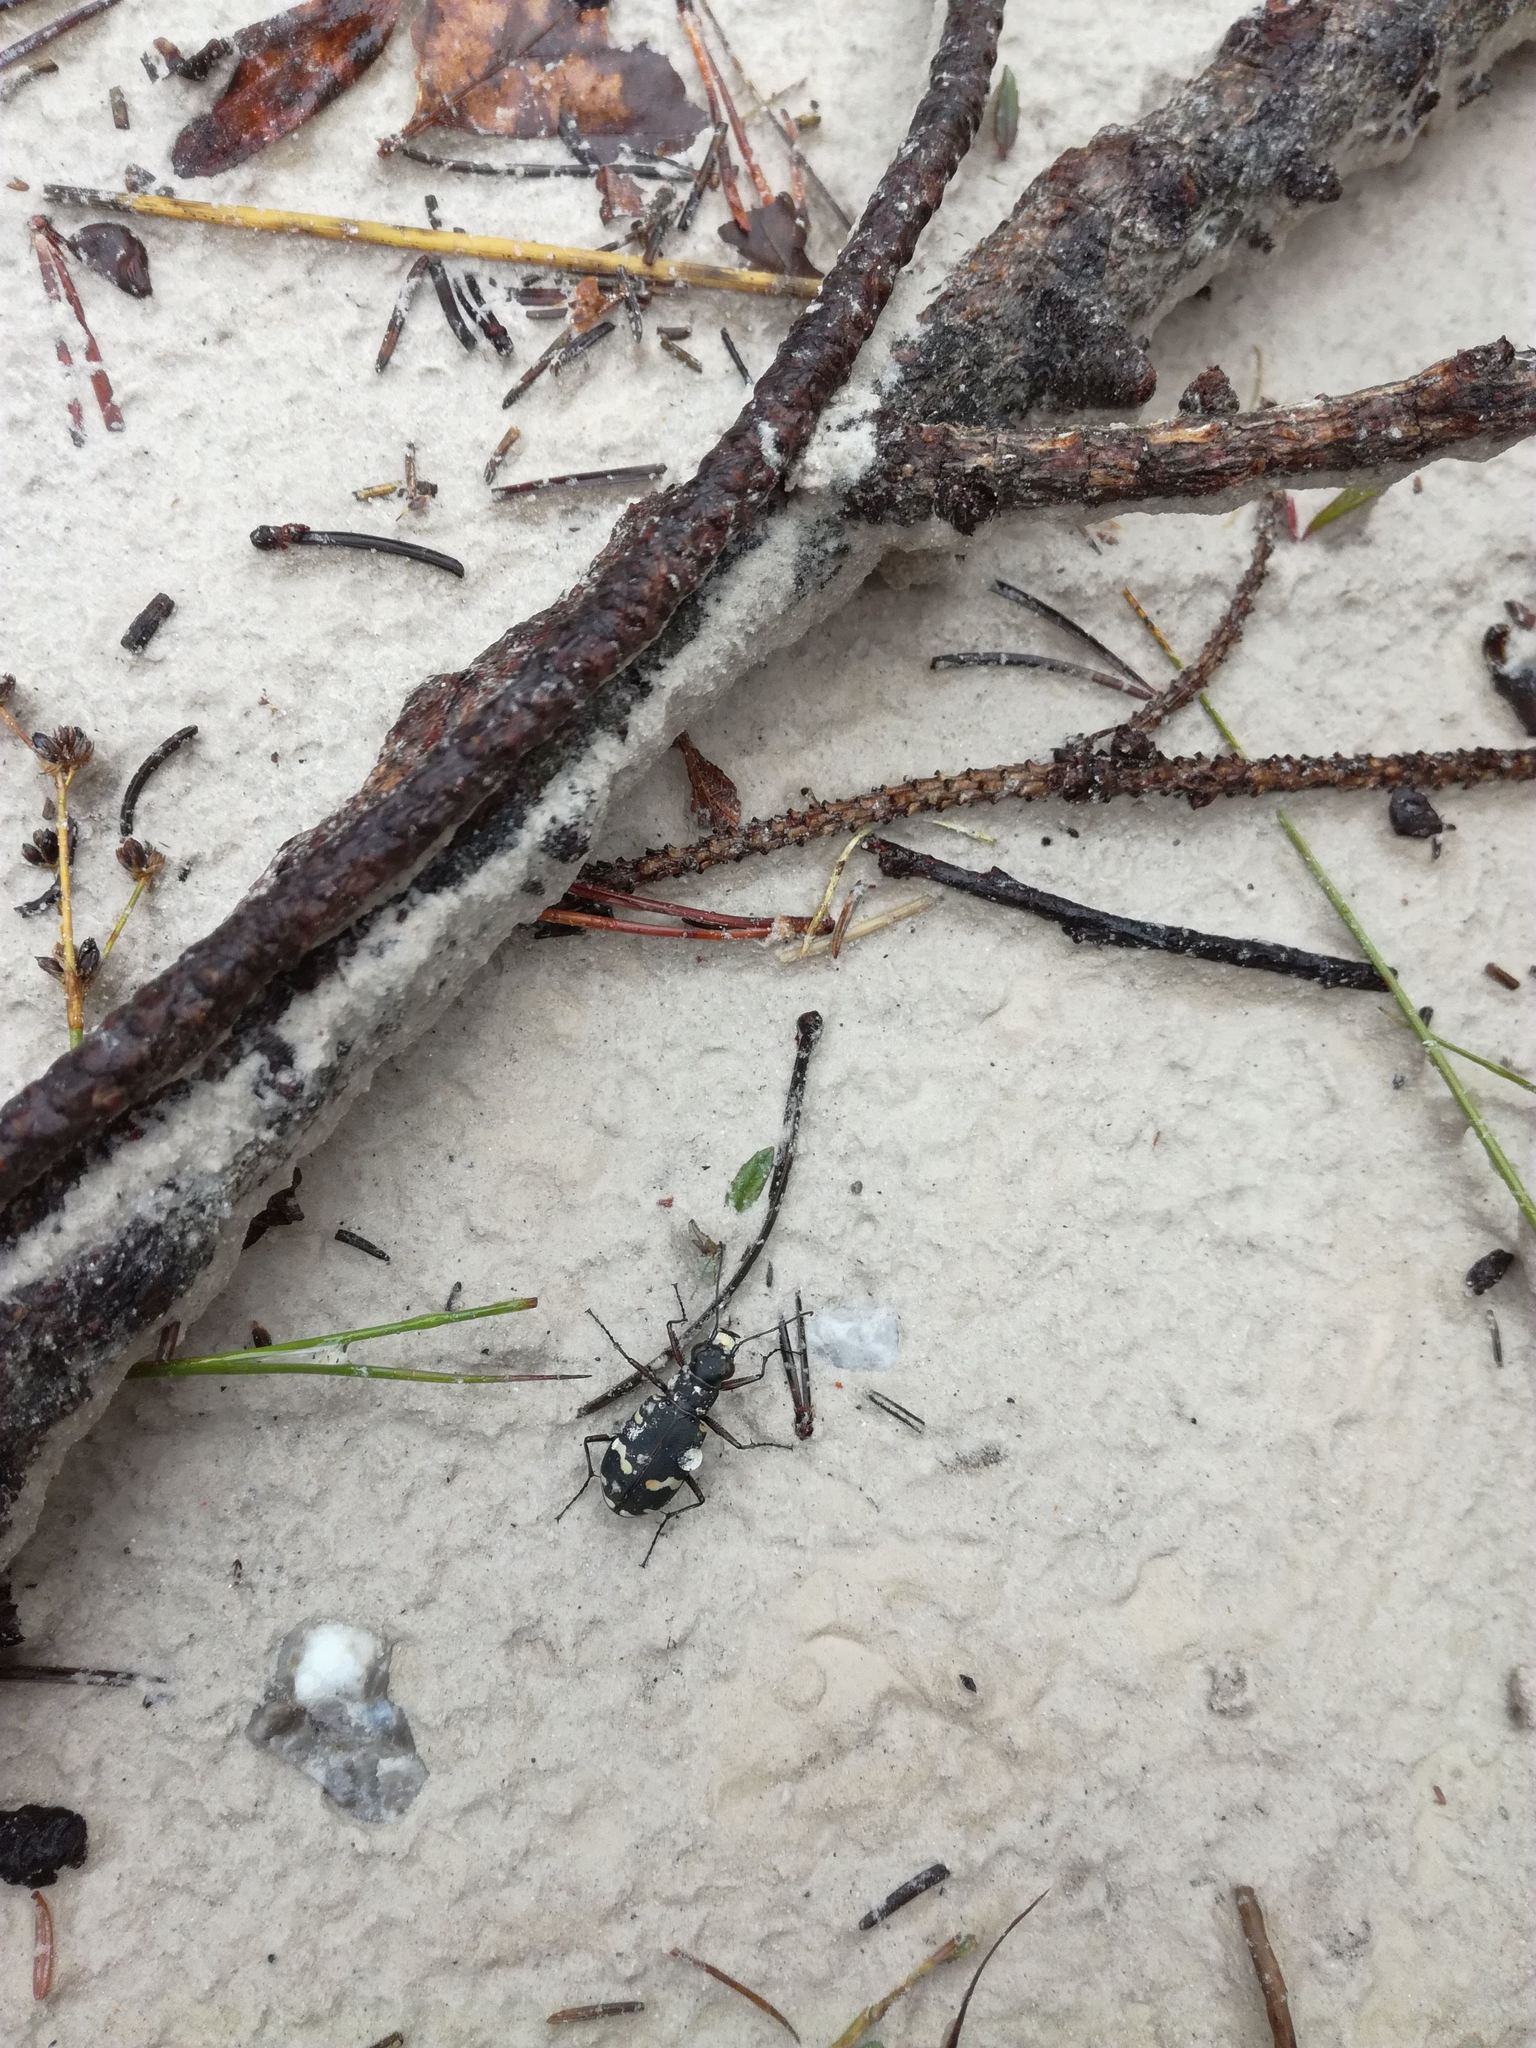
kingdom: Animalia
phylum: Arthropoda
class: Insecta
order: Coleoptera
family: Carabidae
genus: Cicindela
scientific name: Cicindela hybrida
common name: Northern dune tiger beetle
